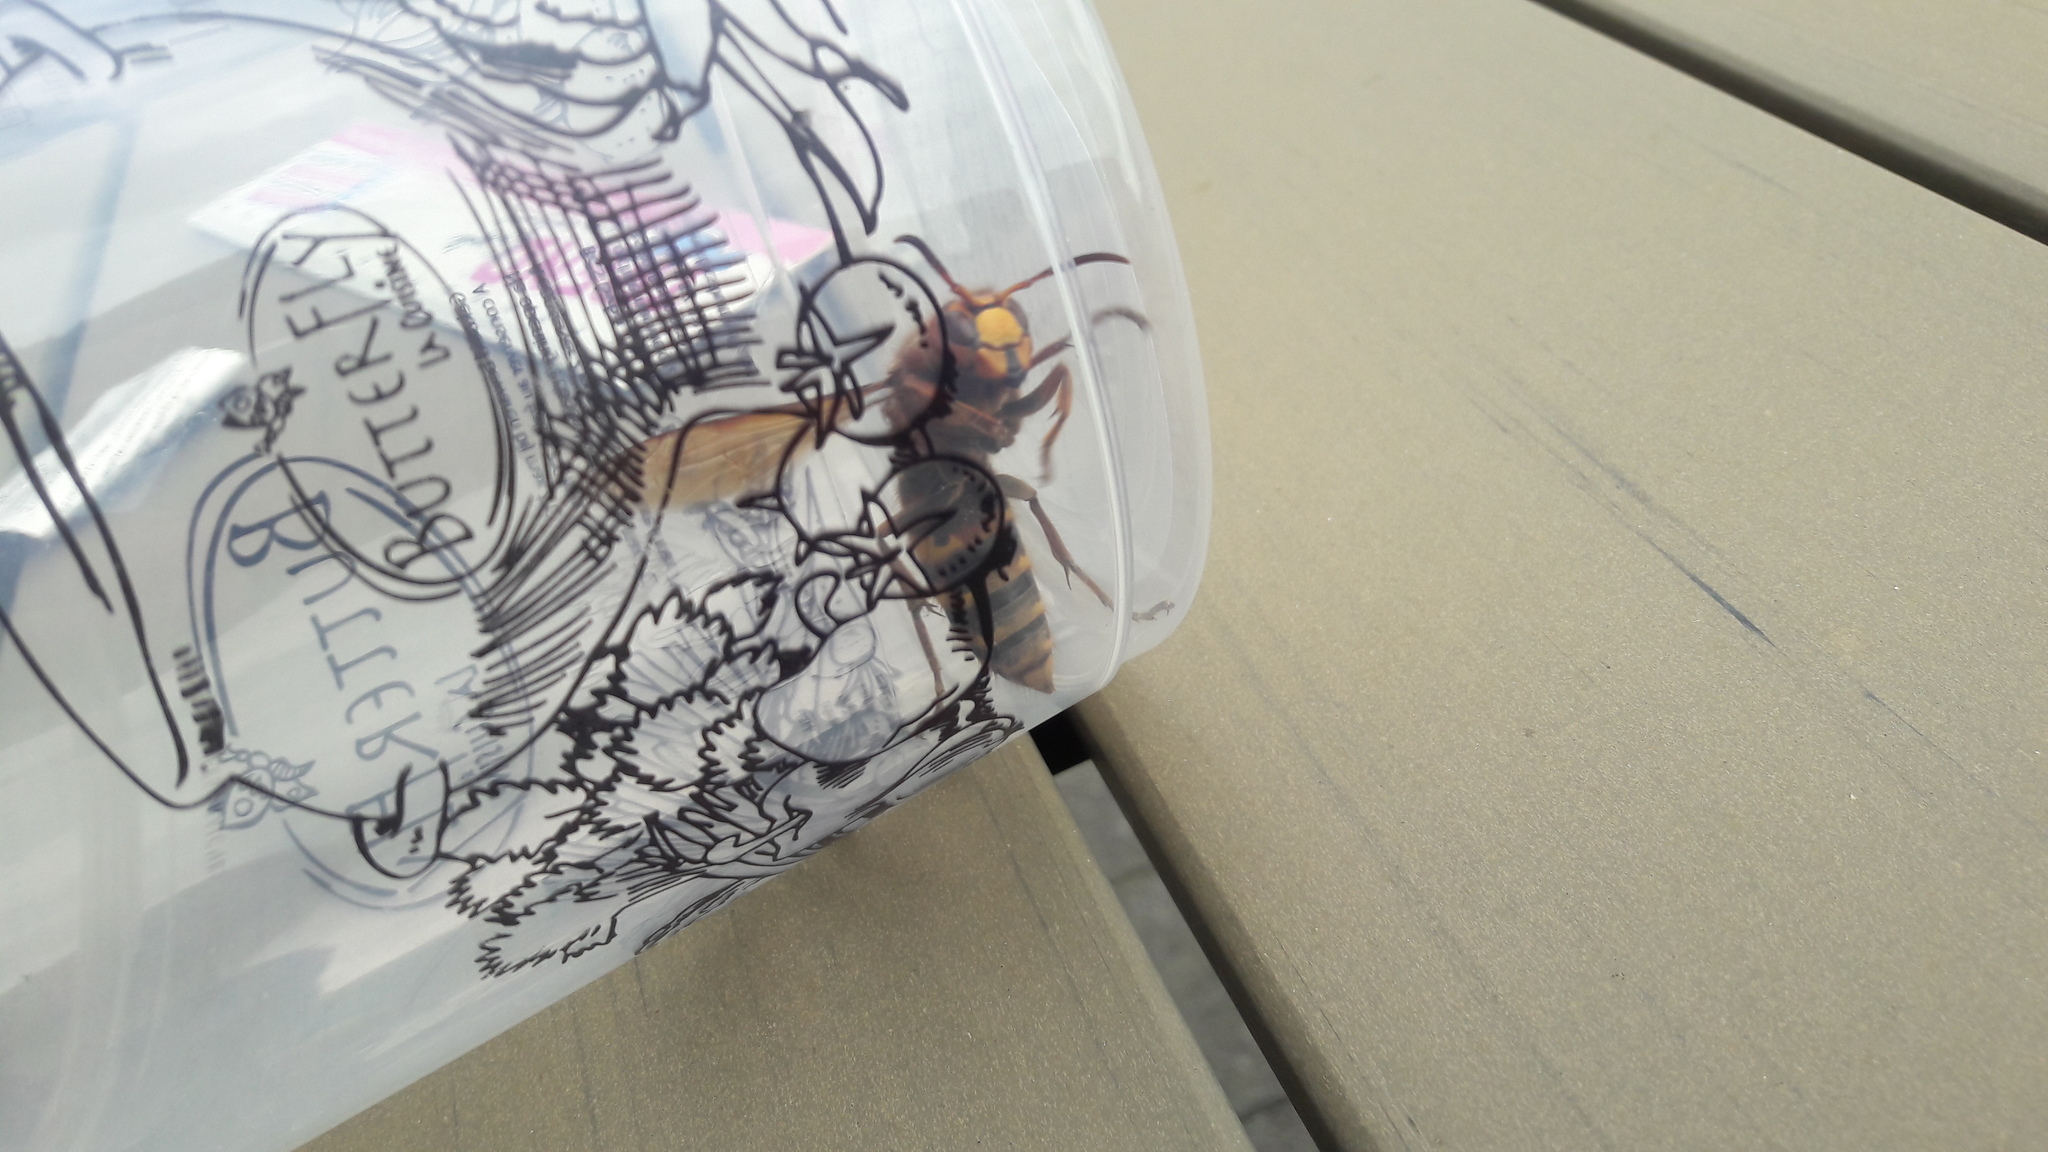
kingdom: Animalia
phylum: Arthropoda
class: Insecta
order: Hymenoptera
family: Vespidae
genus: Vespa
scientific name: Vespa crabro
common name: Hornet
